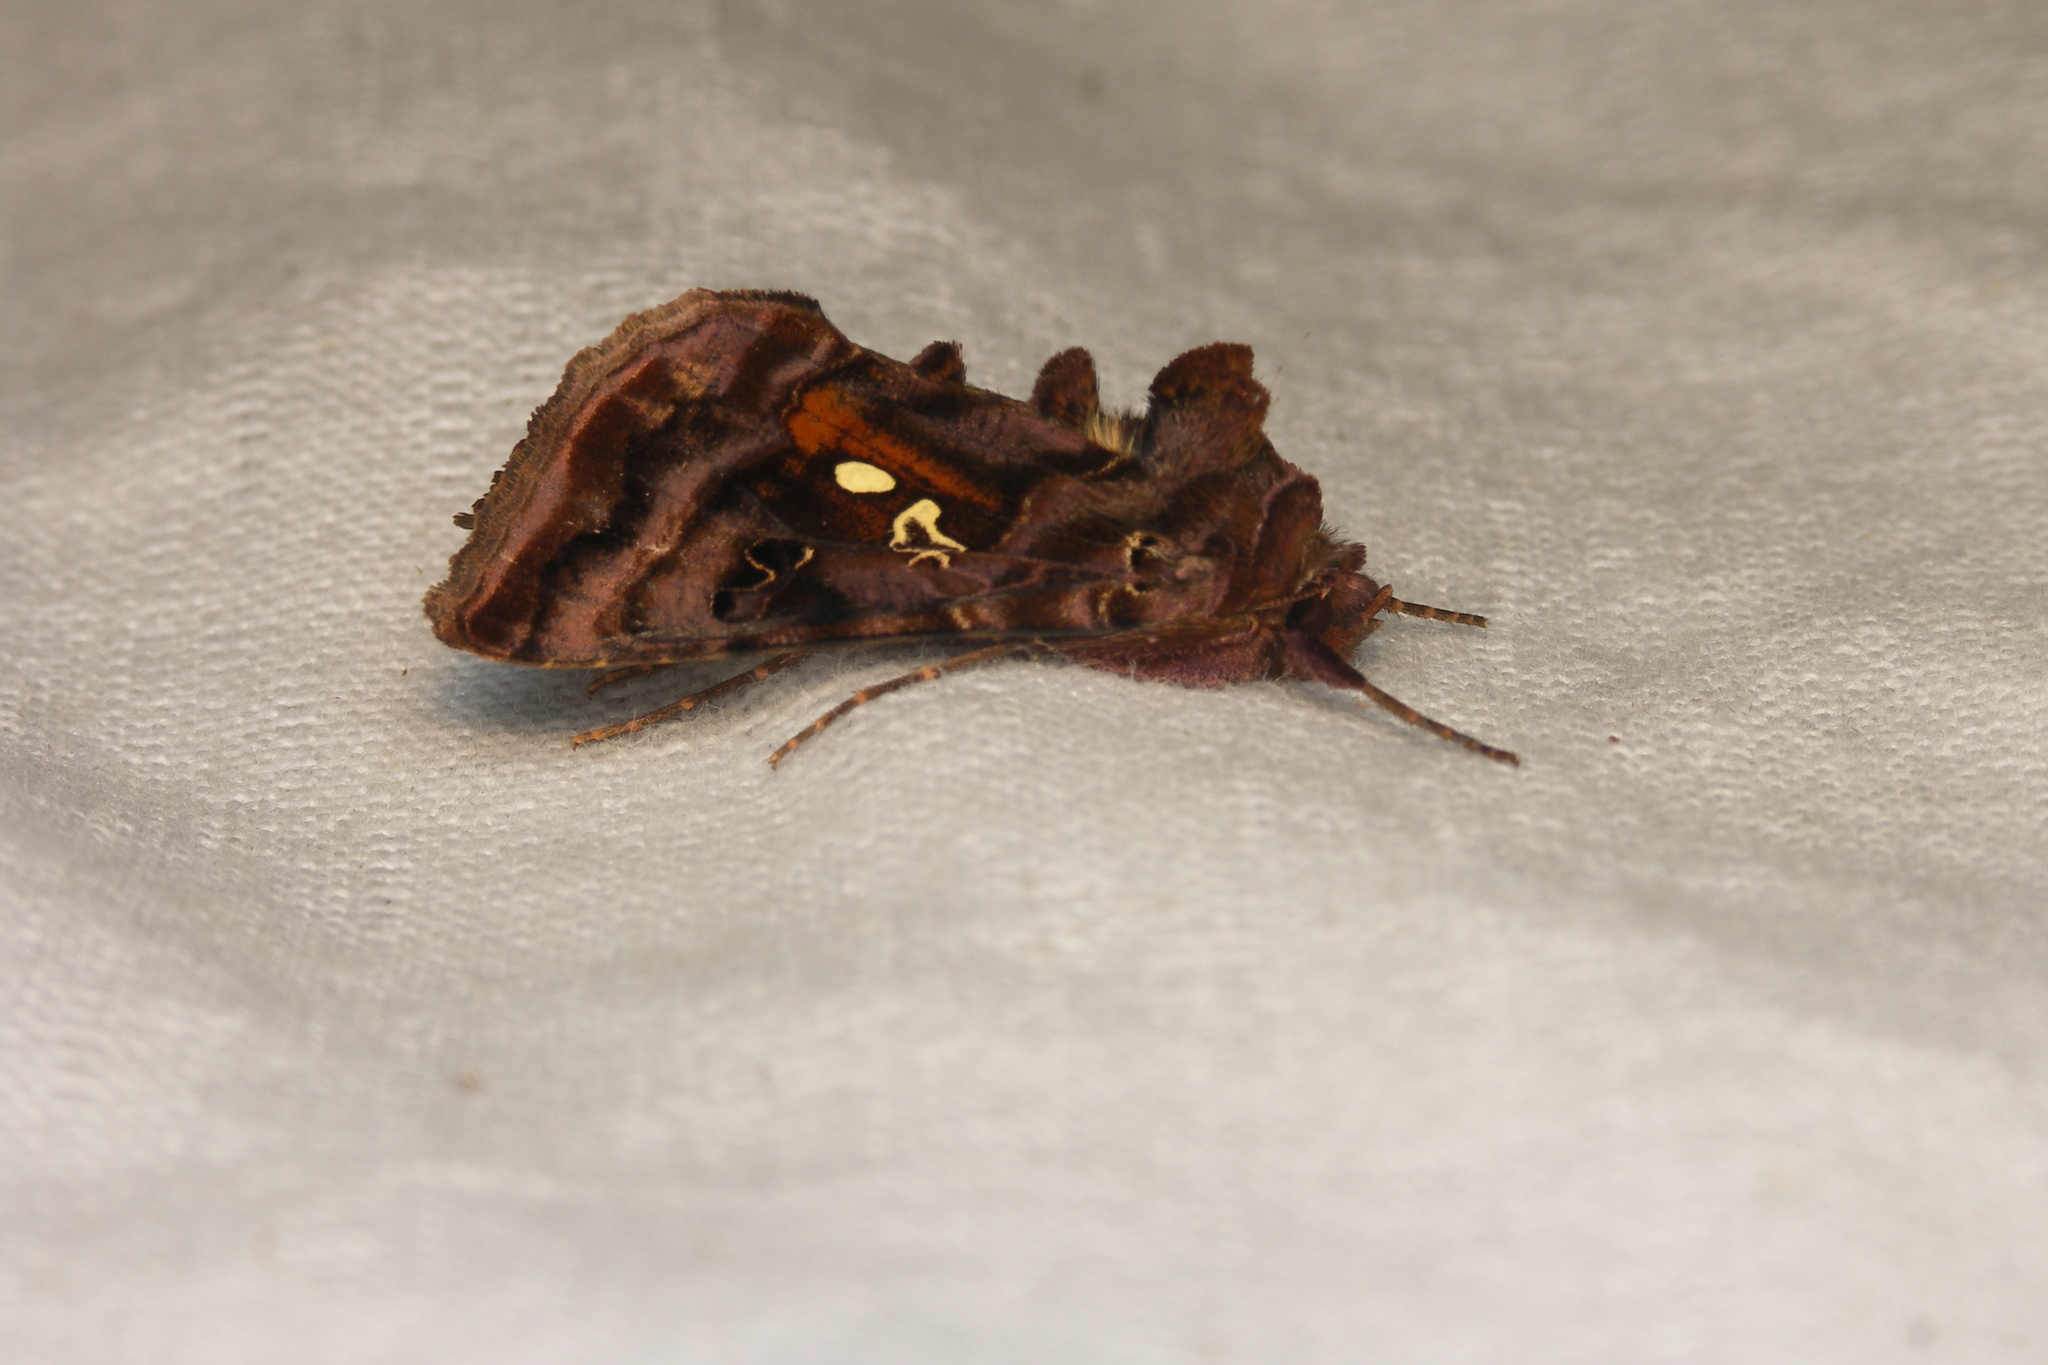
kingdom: Animalia
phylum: Arthropoda
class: Insecta
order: Lepidoptera
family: Noctuidae
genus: Autographa
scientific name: Autographa pulchrina
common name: Beautiful golden y
